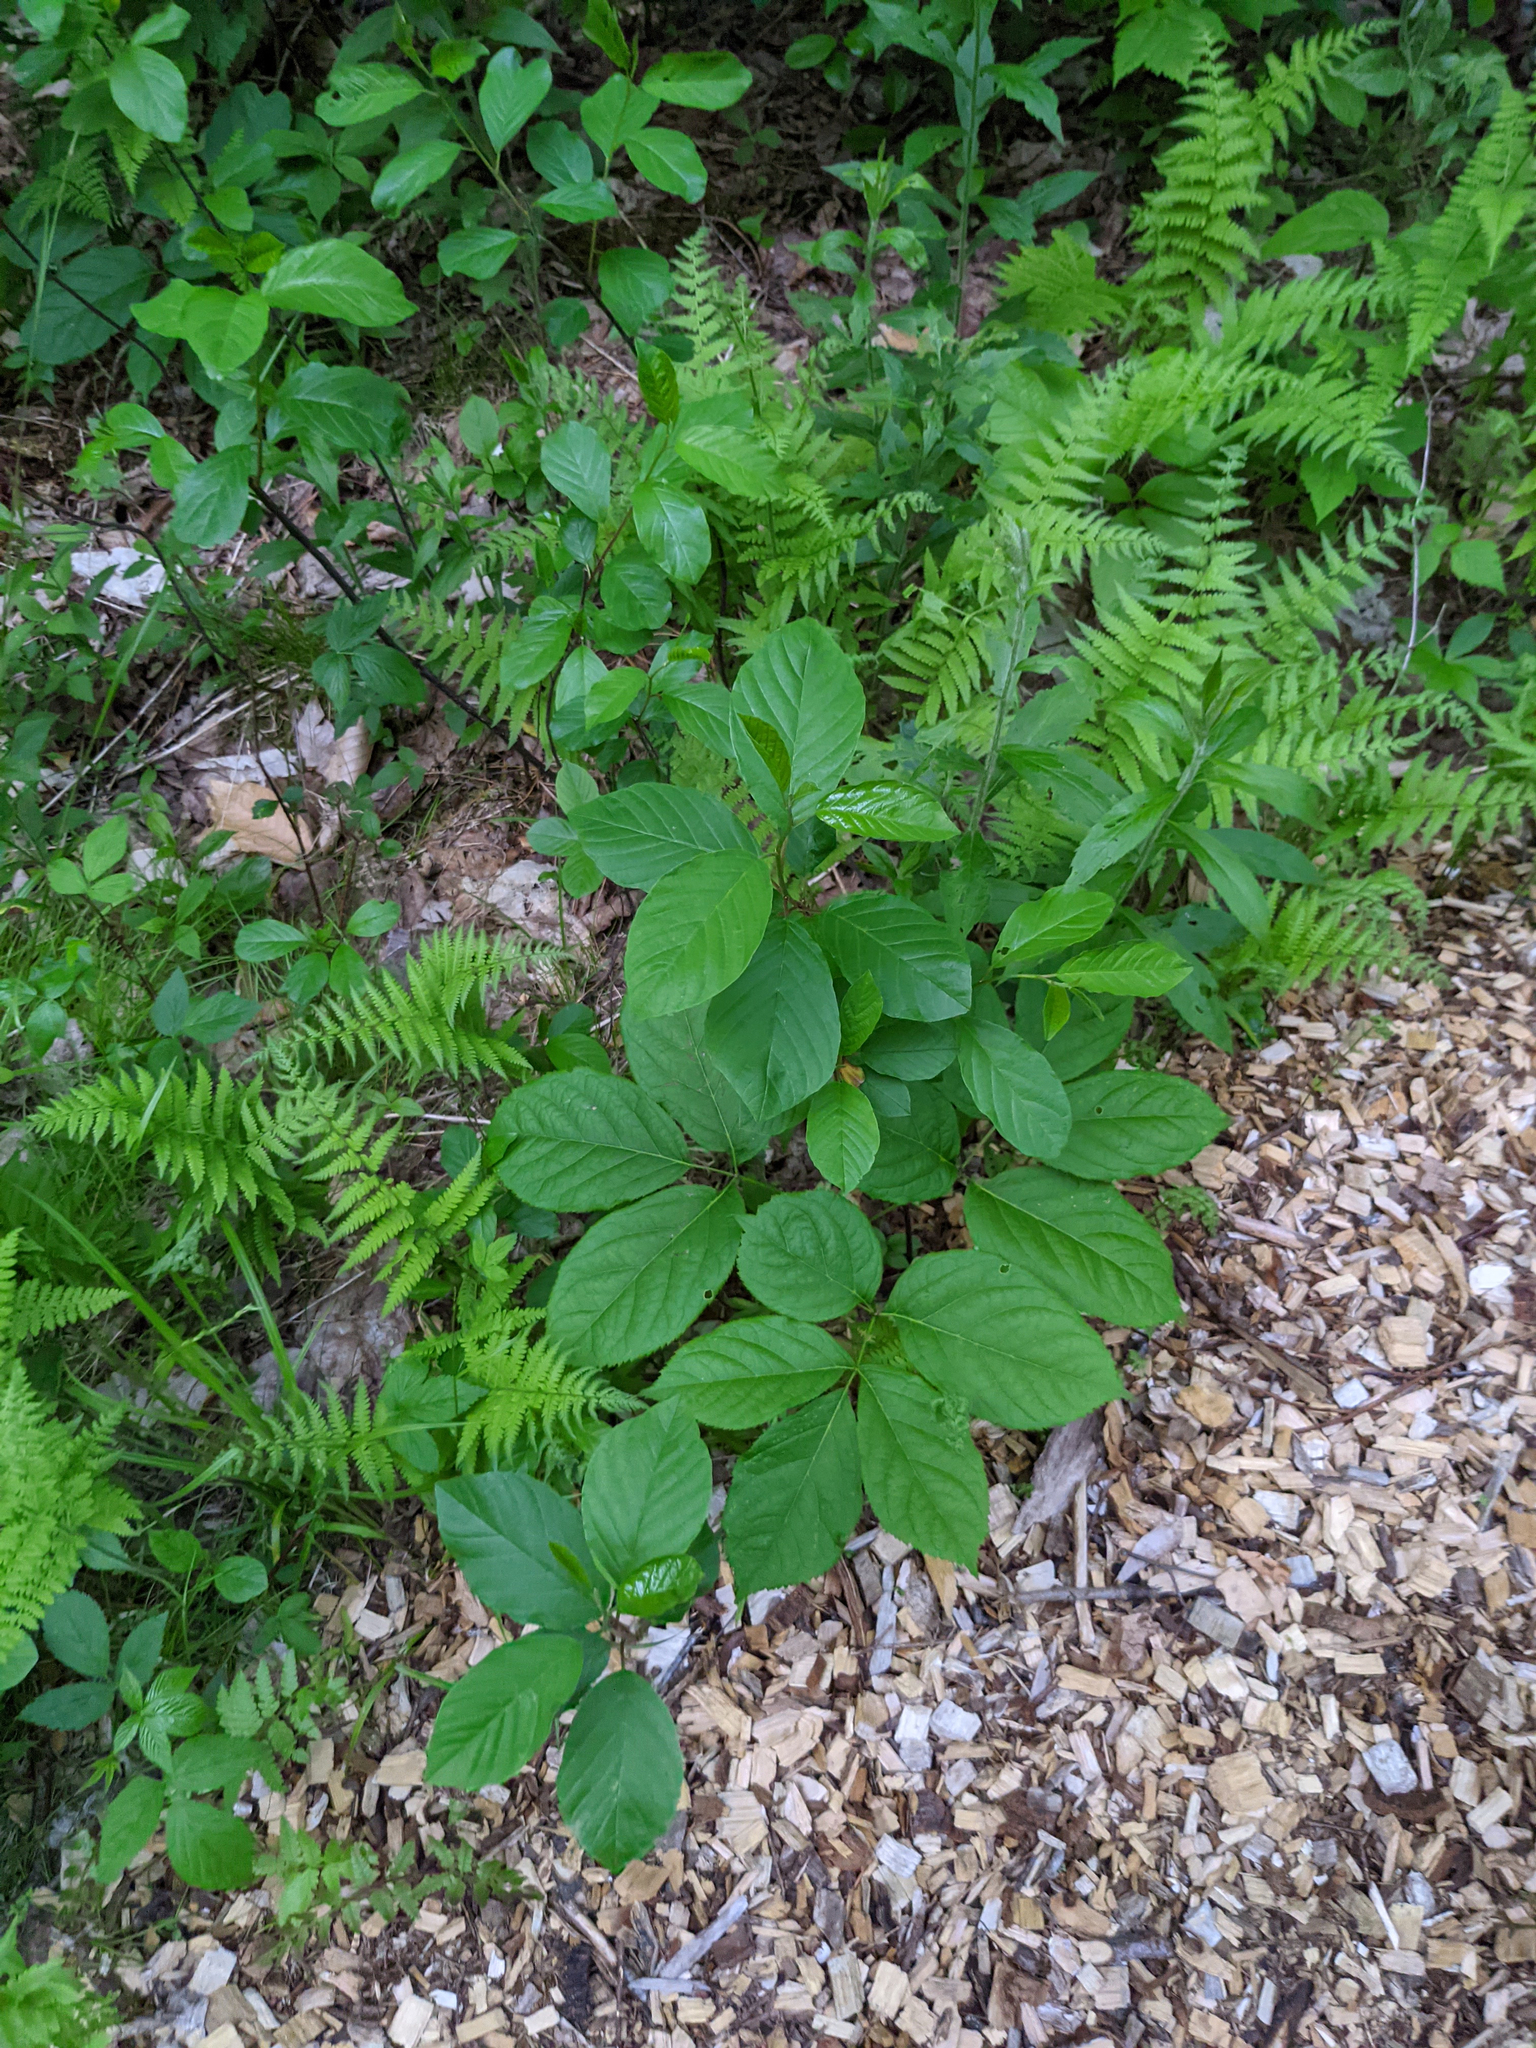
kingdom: Plantae
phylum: Tracheophyta
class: Magnoliopsida
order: Rosales
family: Rhamnaceae
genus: Frangula
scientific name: Frangula alnus
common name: Alder buckthorn
